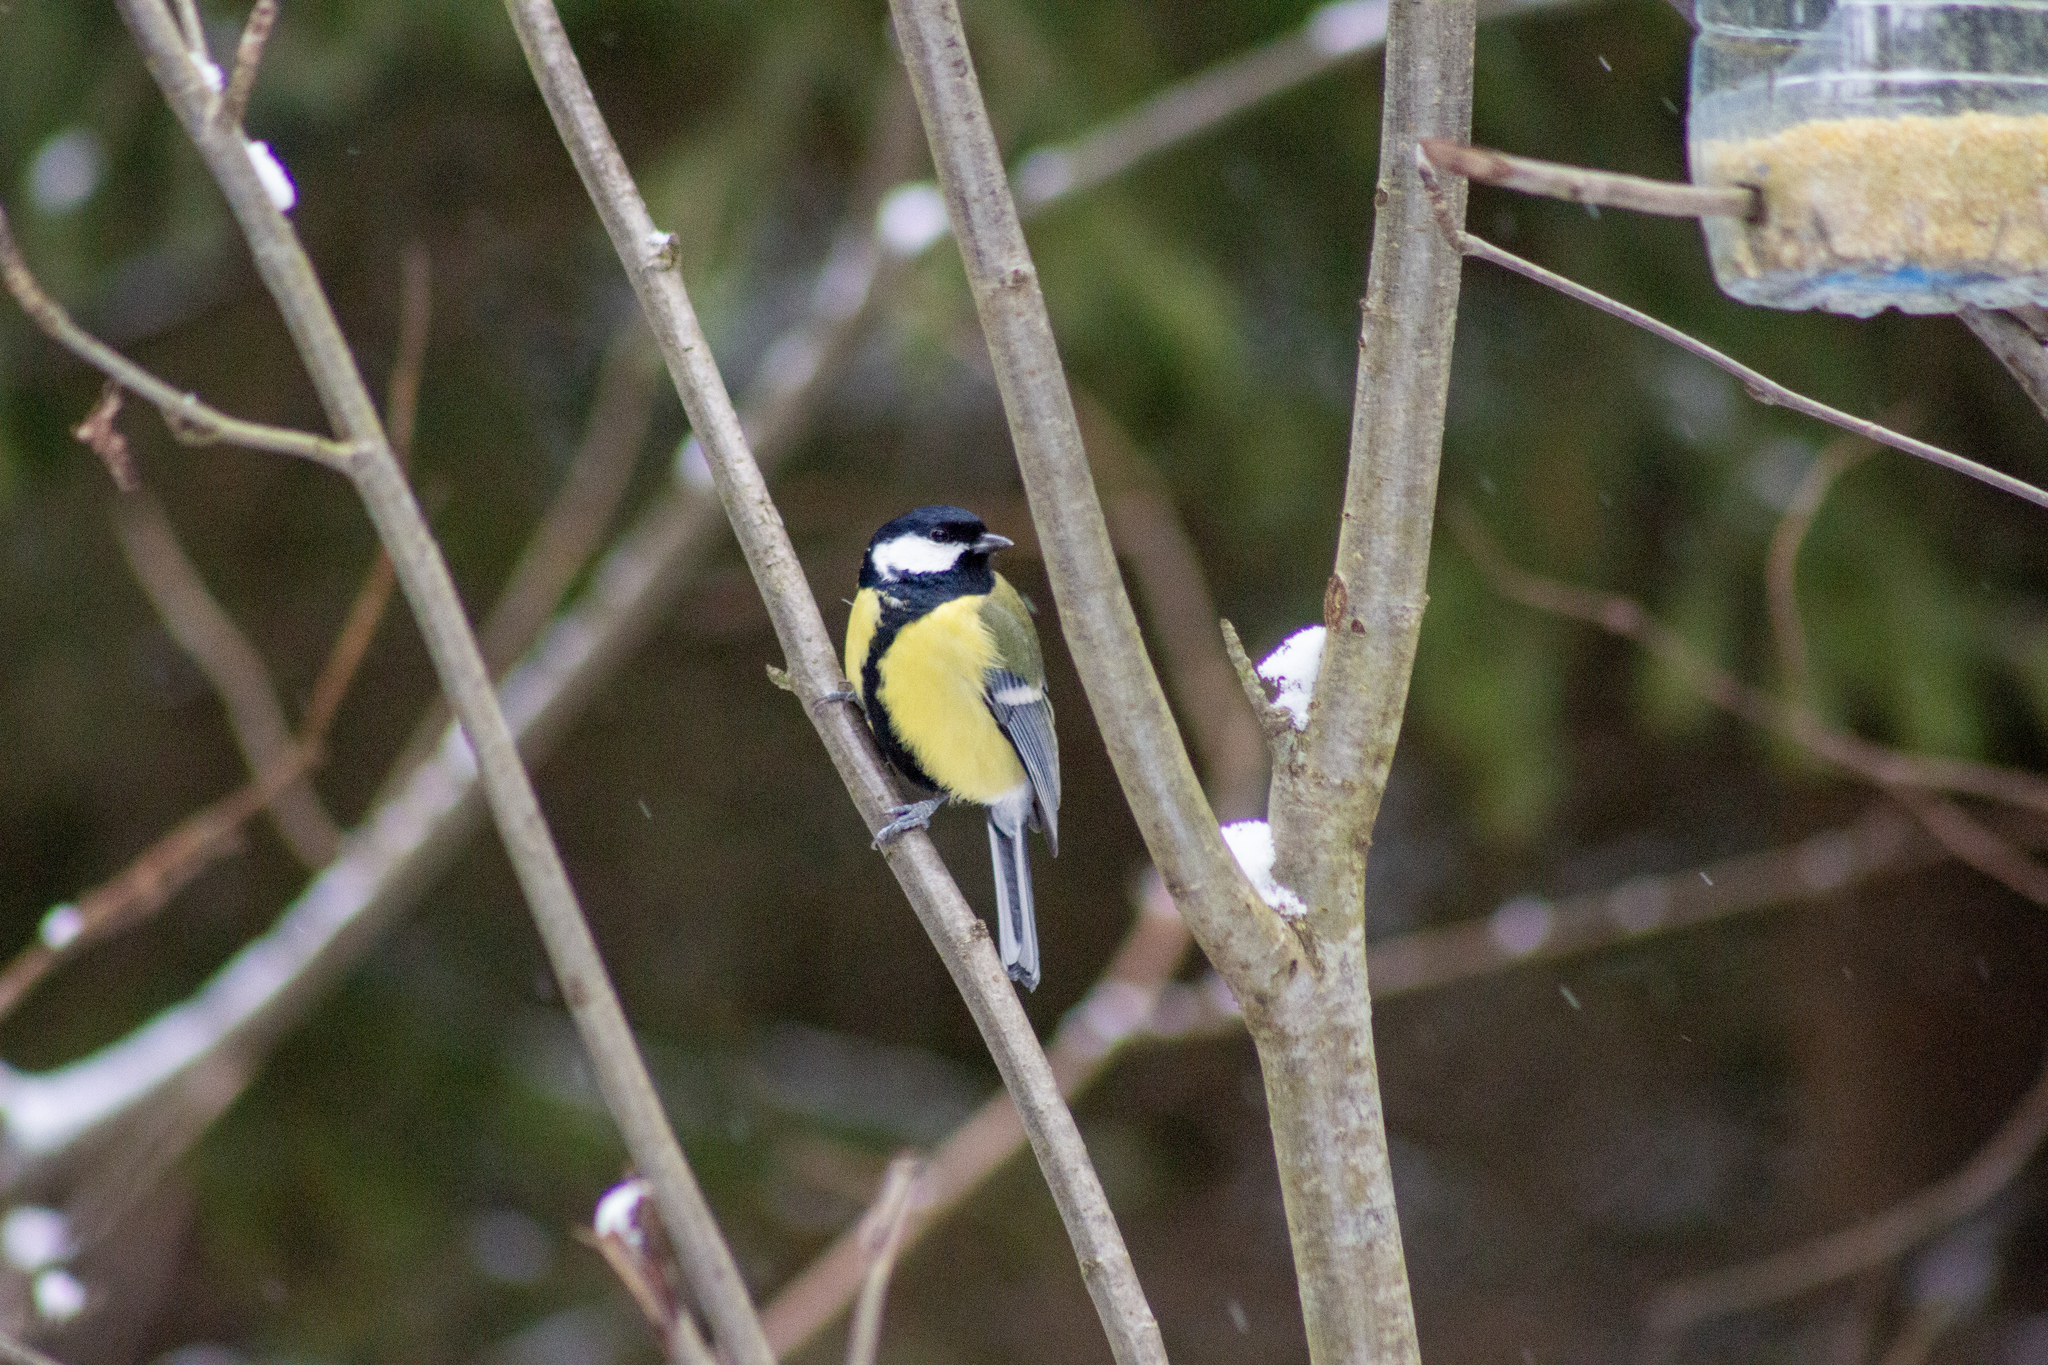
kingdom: Animalia
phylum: Chordata
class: Aves
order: Passeriformes
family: Paridae
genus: Parus
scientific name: Parus major
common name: Great tit
